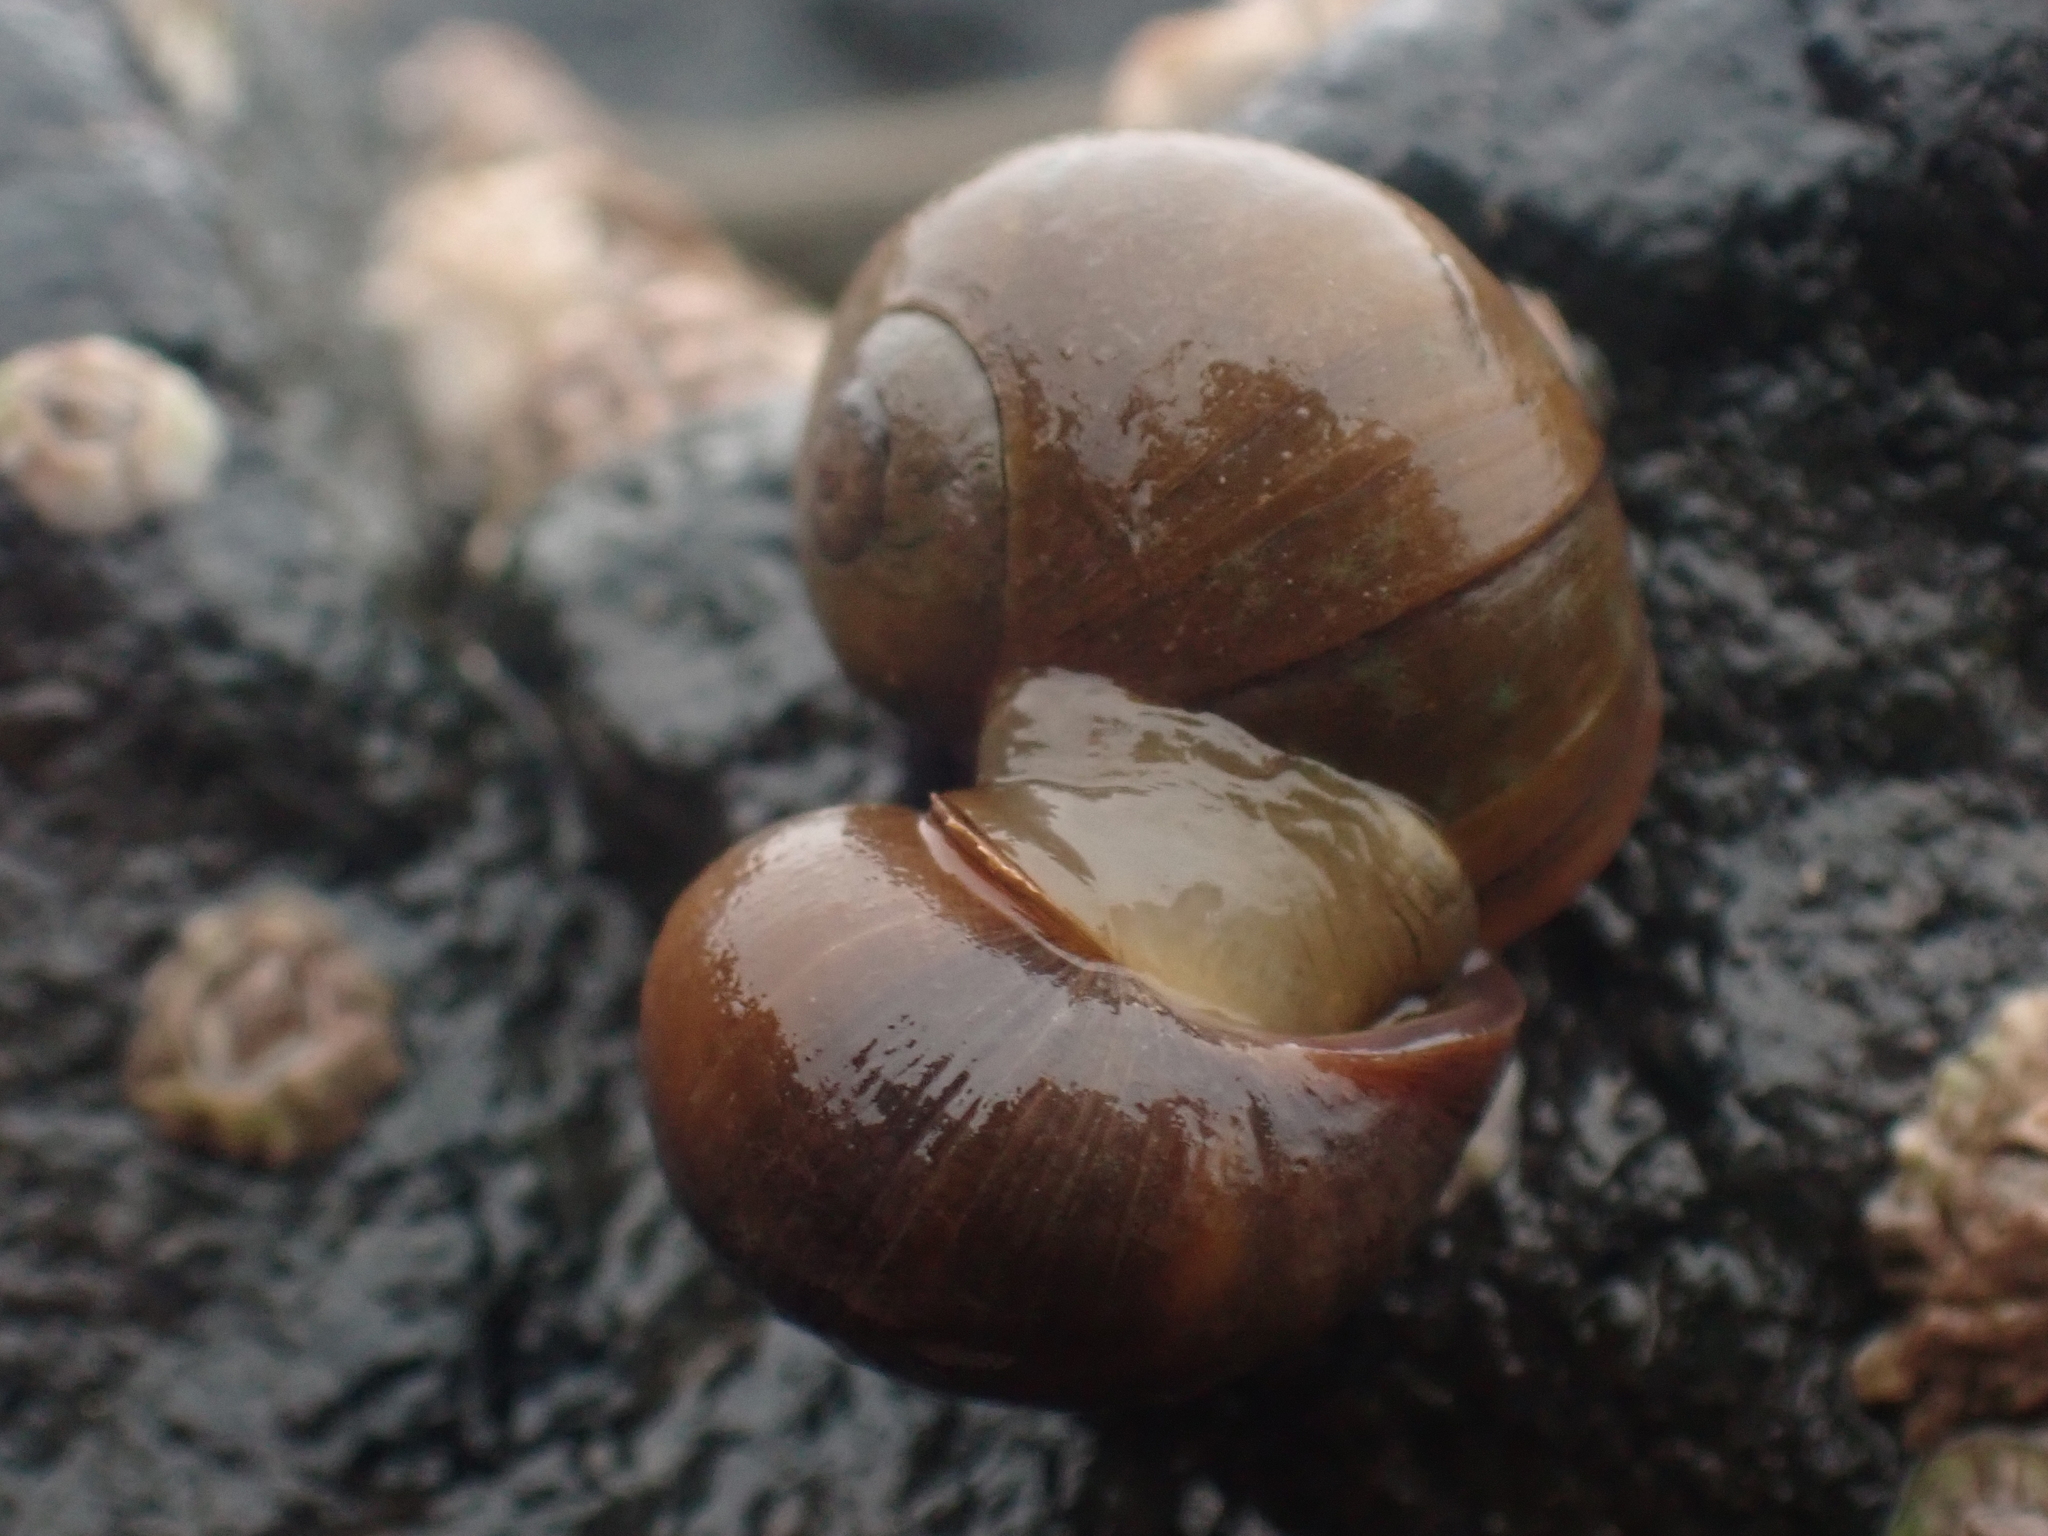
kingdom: Animalia
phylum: Mollusca
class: Gastropoda
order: Littorinimorpha
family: Littorinidae
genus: Littorina
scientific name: Littorina obtusata
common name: Flat periwinkle
